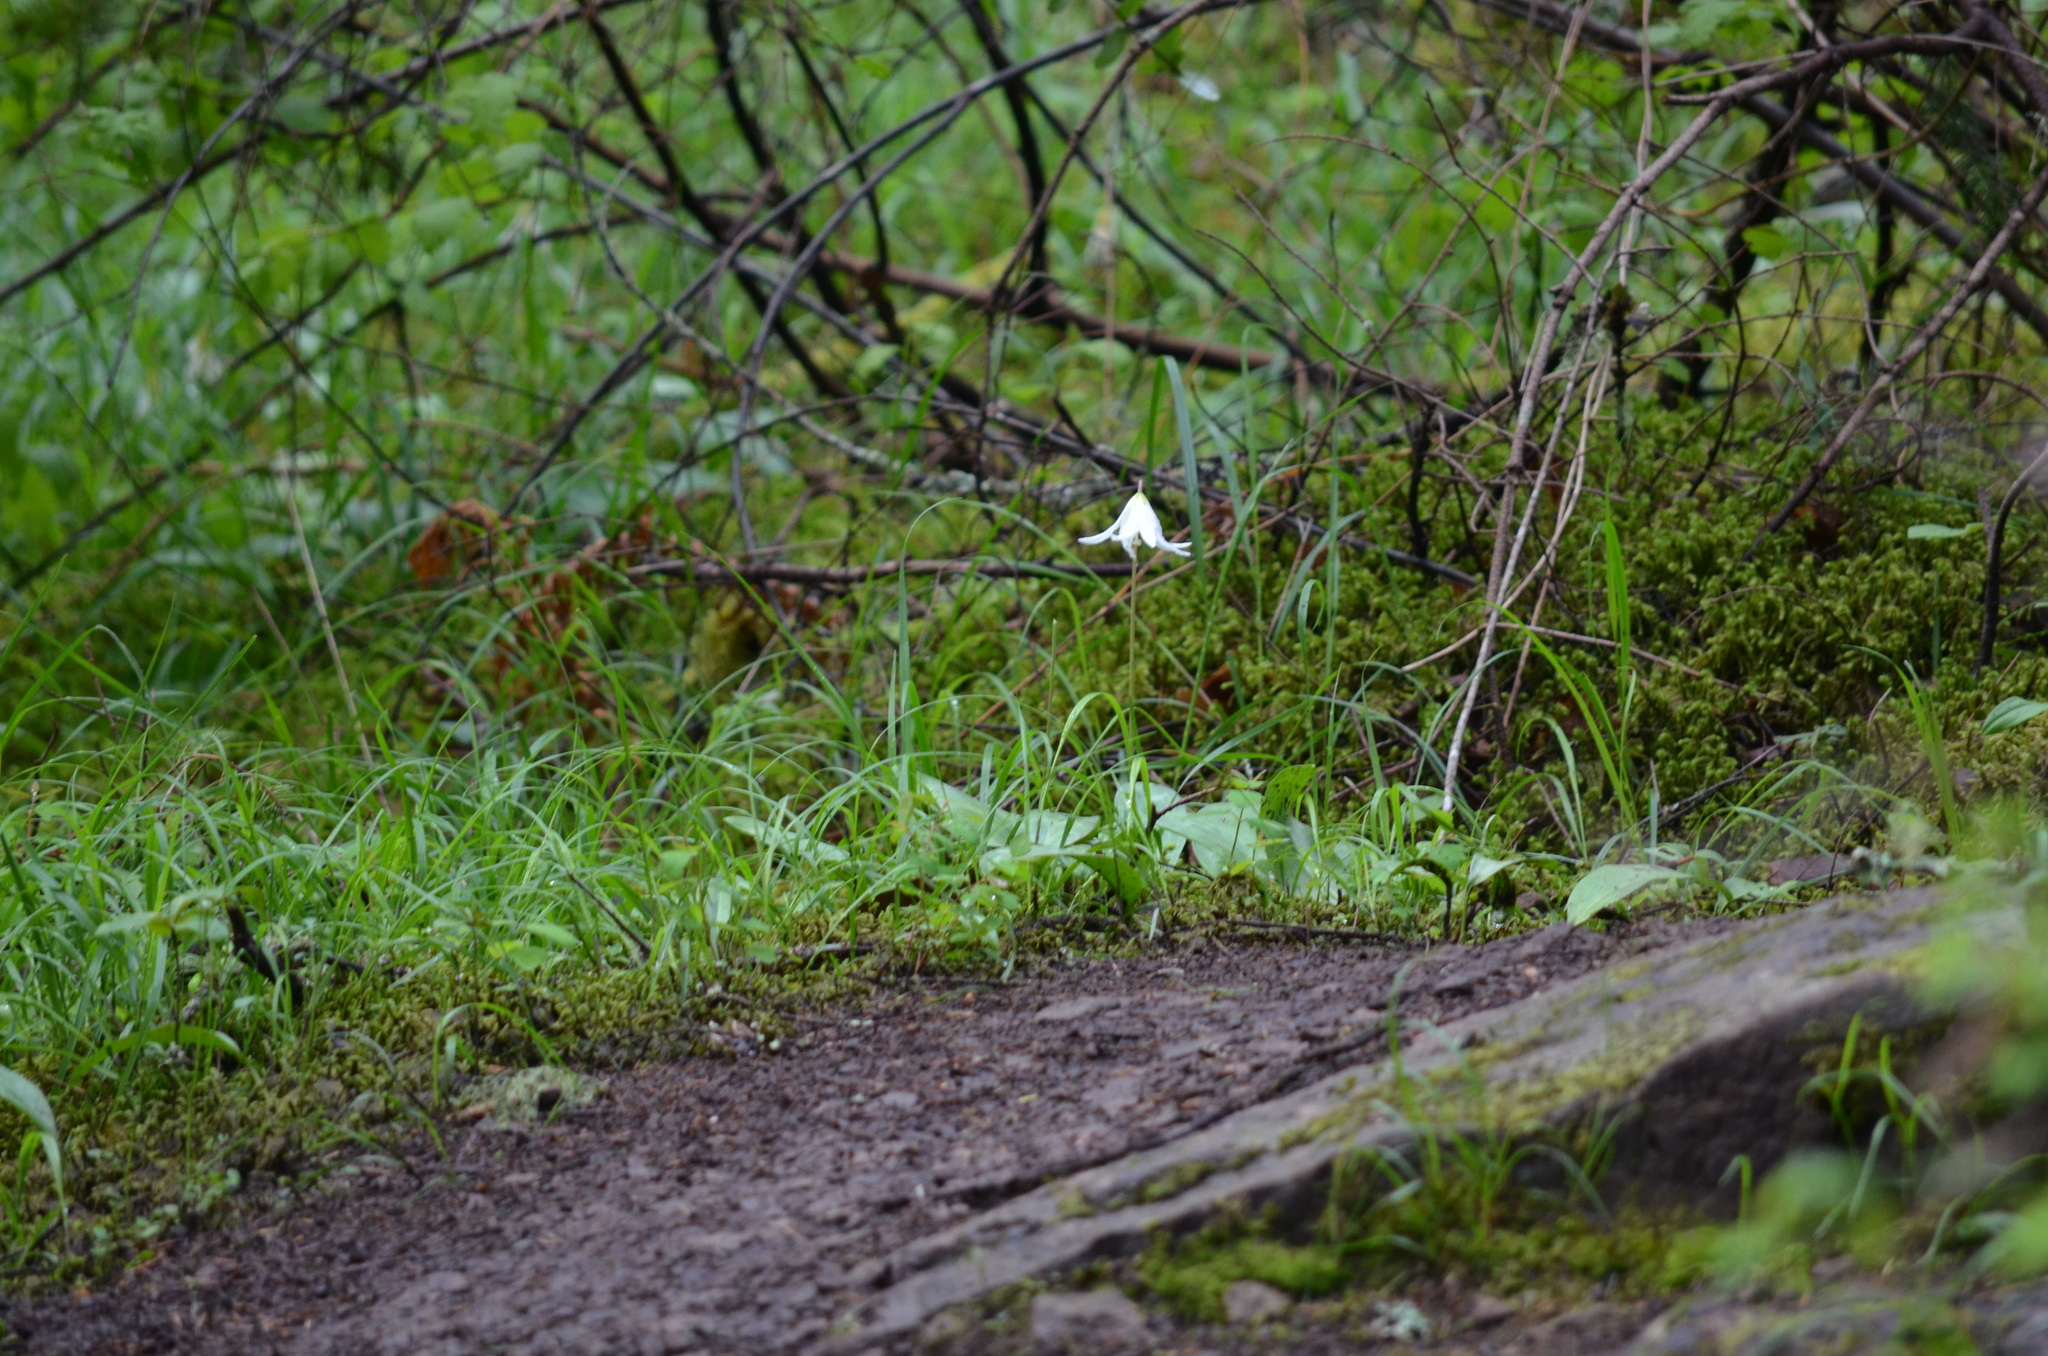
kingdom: Plantae
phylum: Tracheophyta
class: Liliopsida
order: Liliales
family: Liliaceae
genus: Erythronium
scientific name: Erythronium oregonum
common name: Giant adder's-tongue
